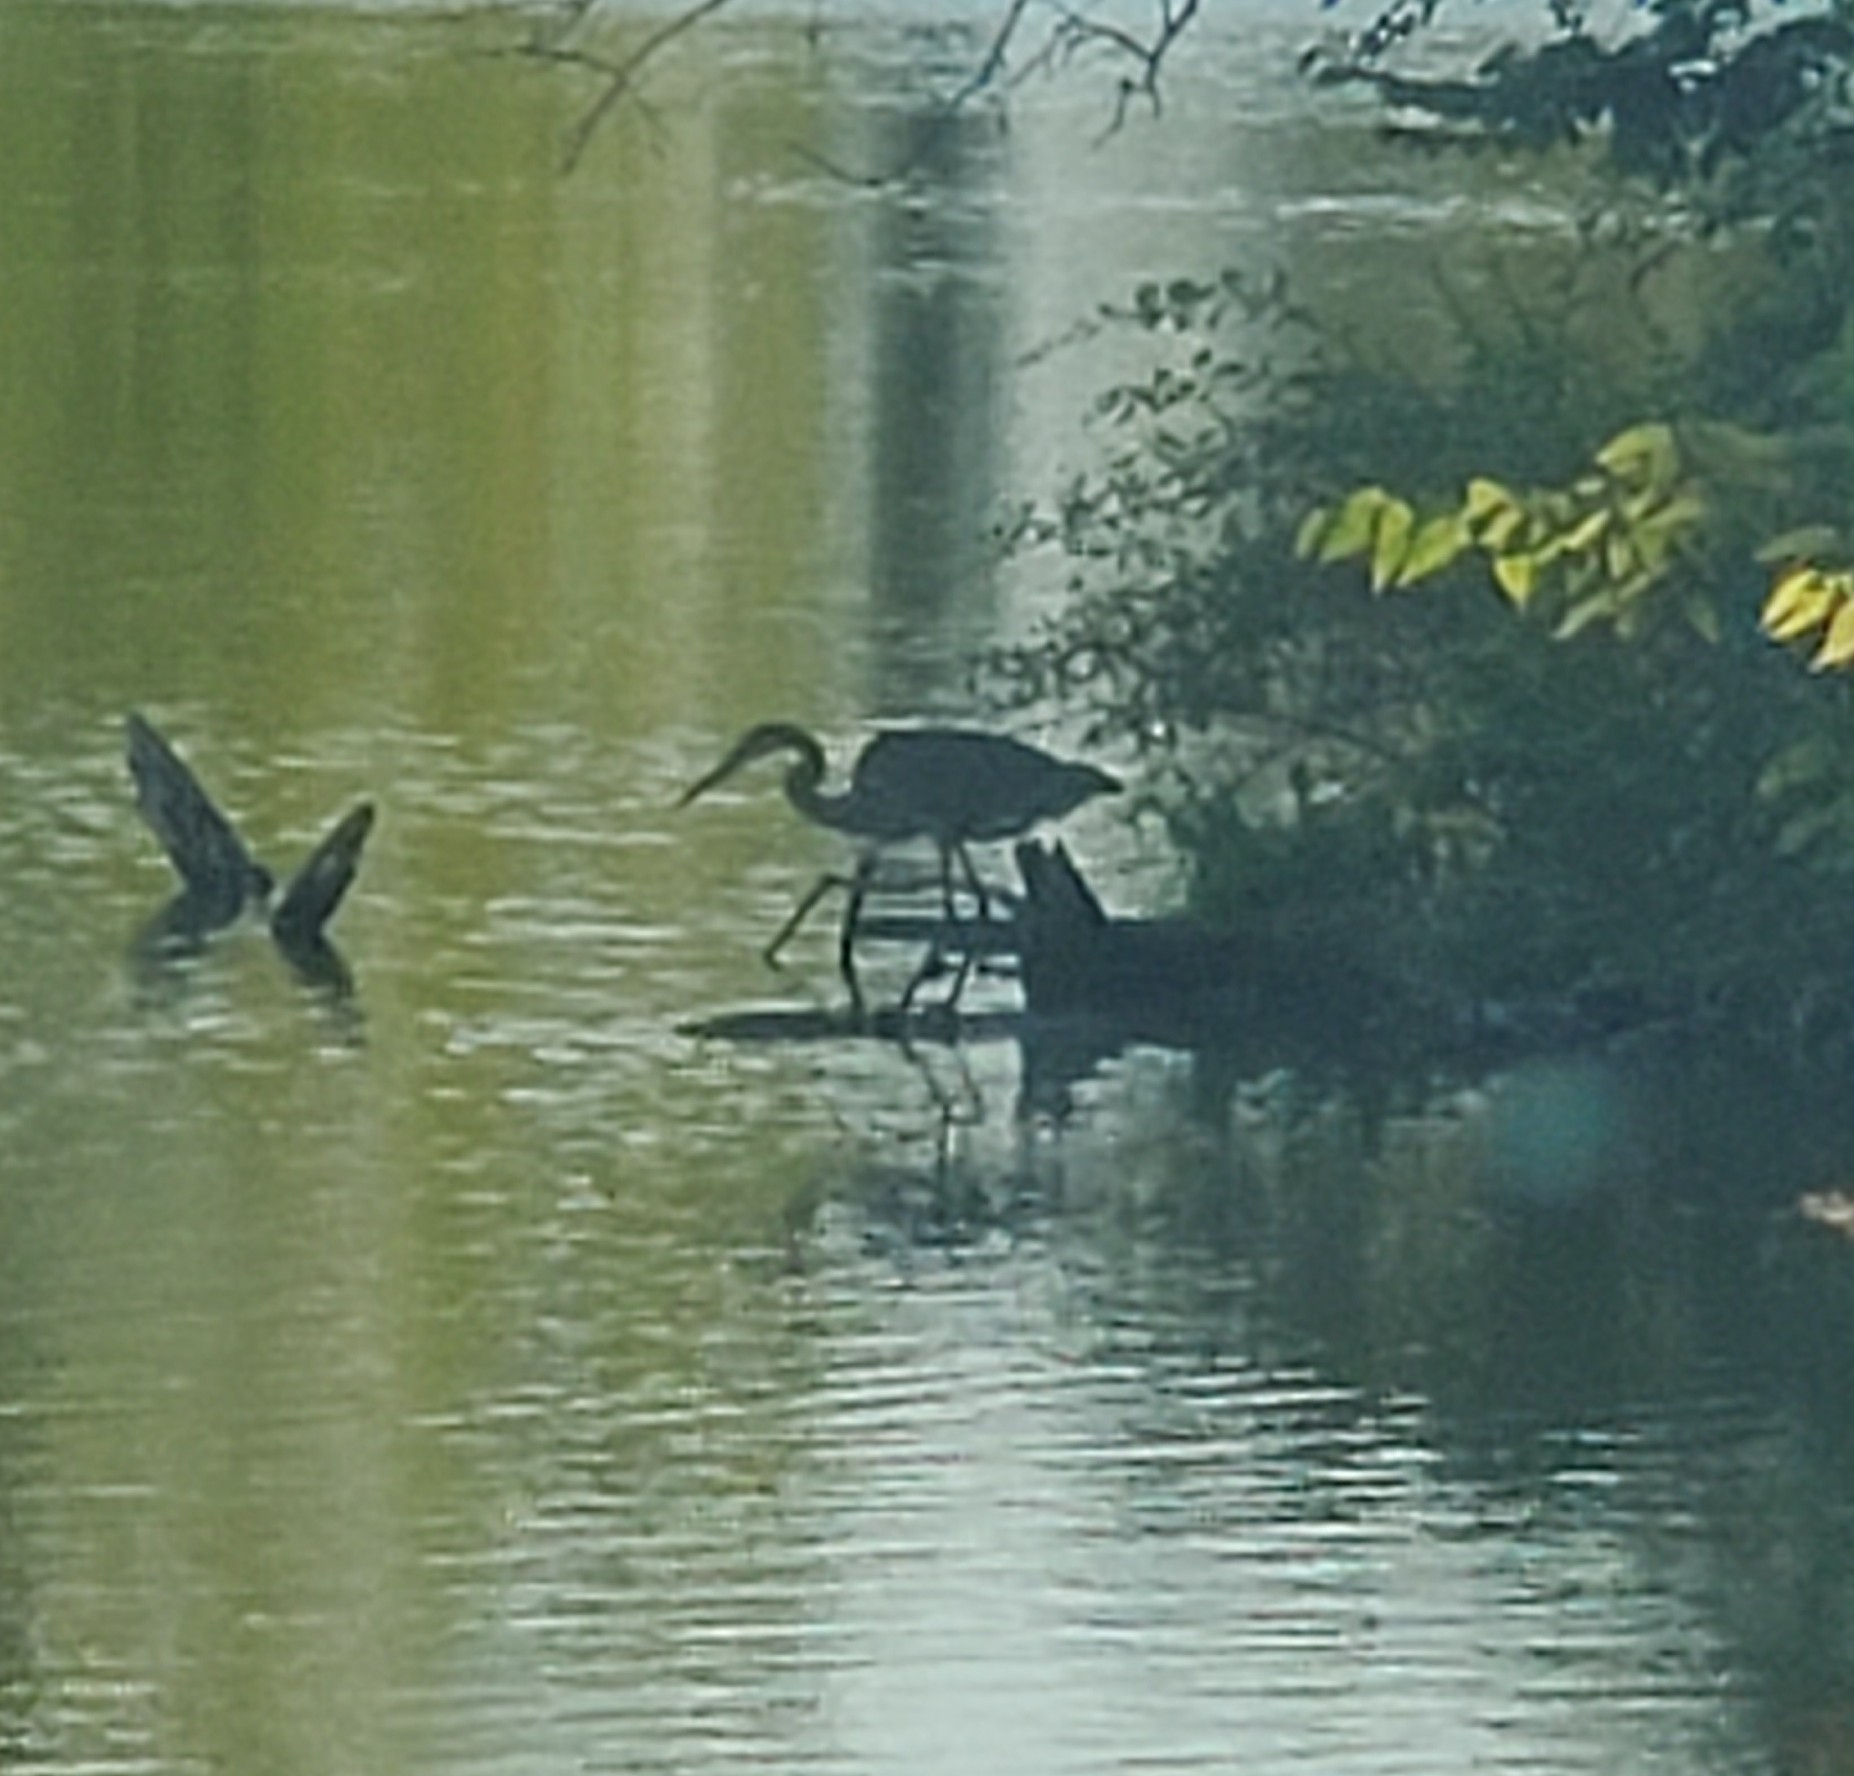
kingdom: Animalia
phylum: Chordata
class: Aves
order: Pelecaniformes
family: Ardeidae
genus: Ardea
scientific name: Ardea herodias
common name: Great blue heron
